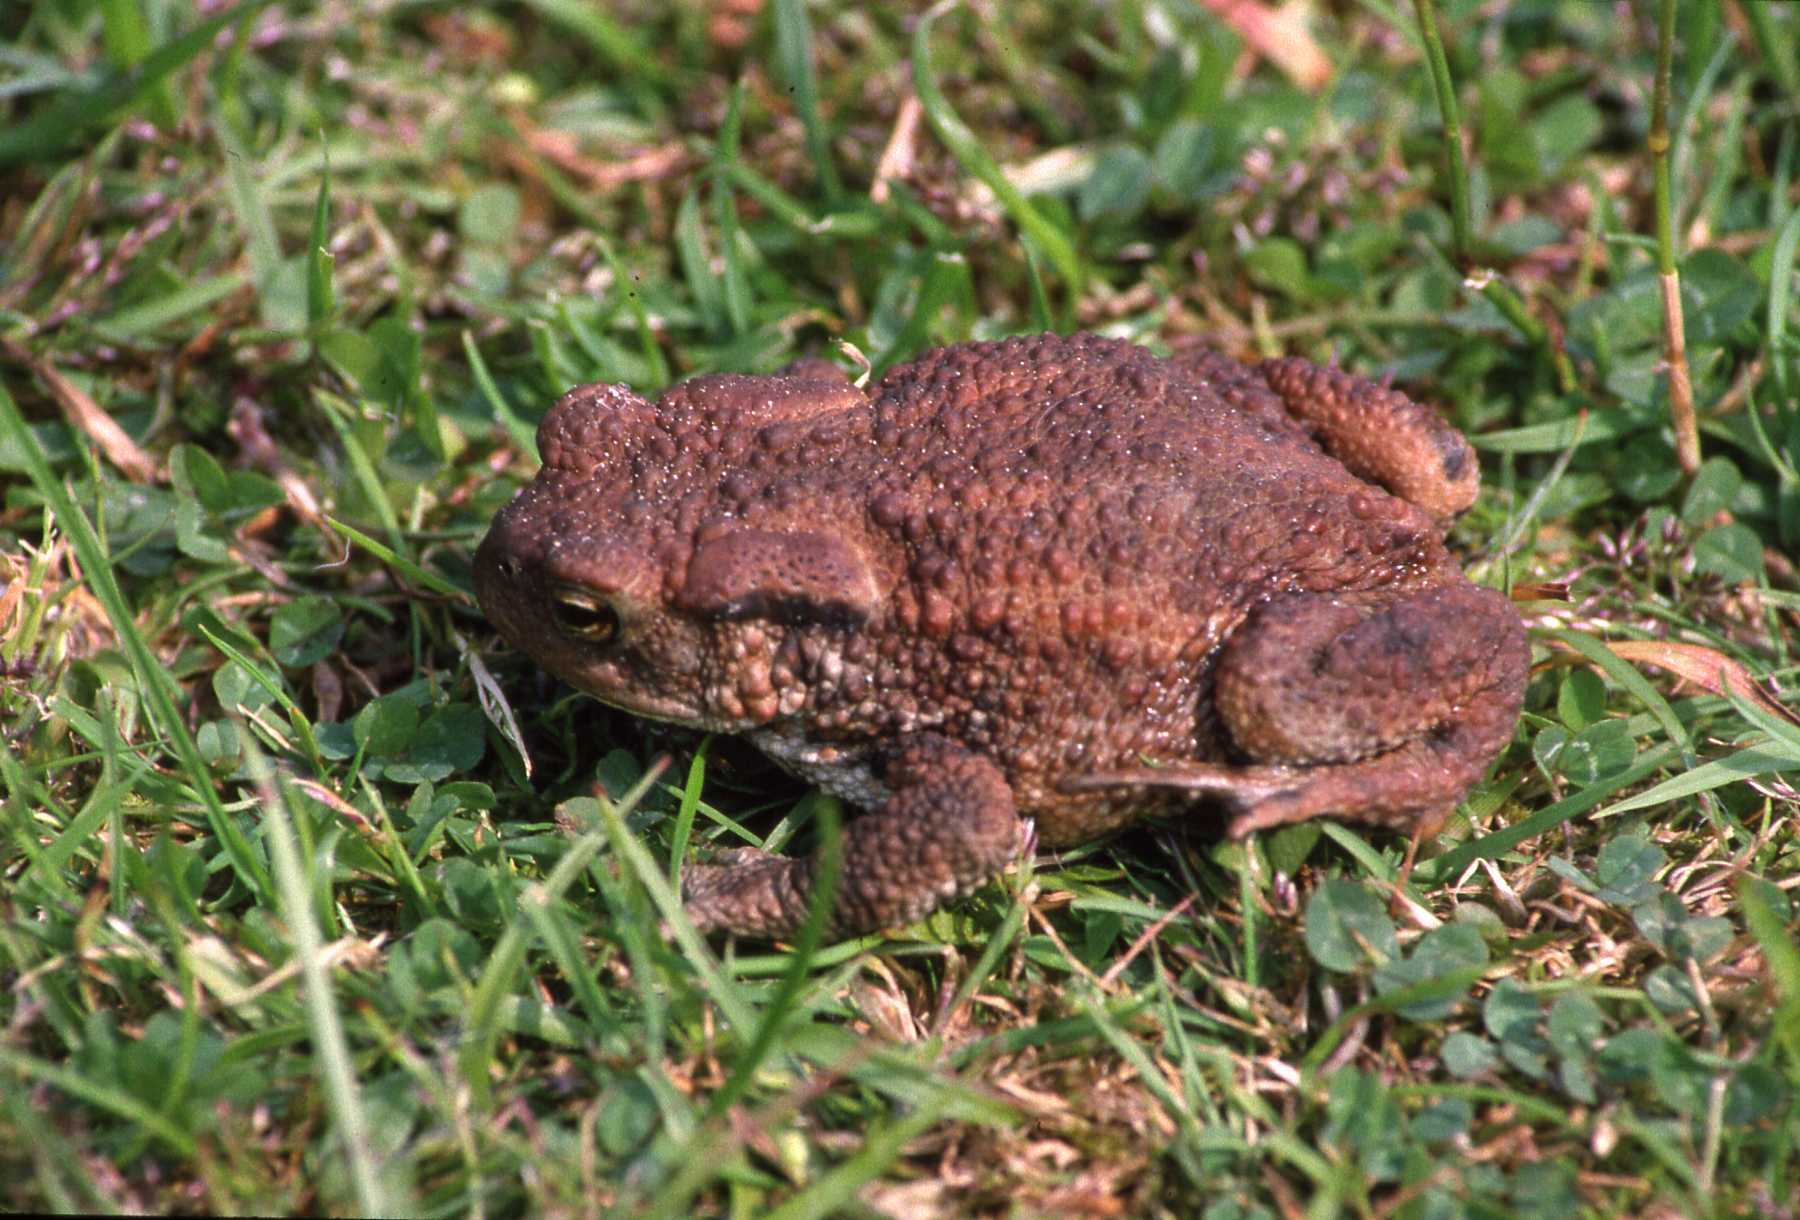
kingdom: Animalia
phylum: Chordata
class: Amphibia
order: Anura
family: Bufonidae
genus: Bufo
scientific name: Bufo bufo
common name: Common toad
